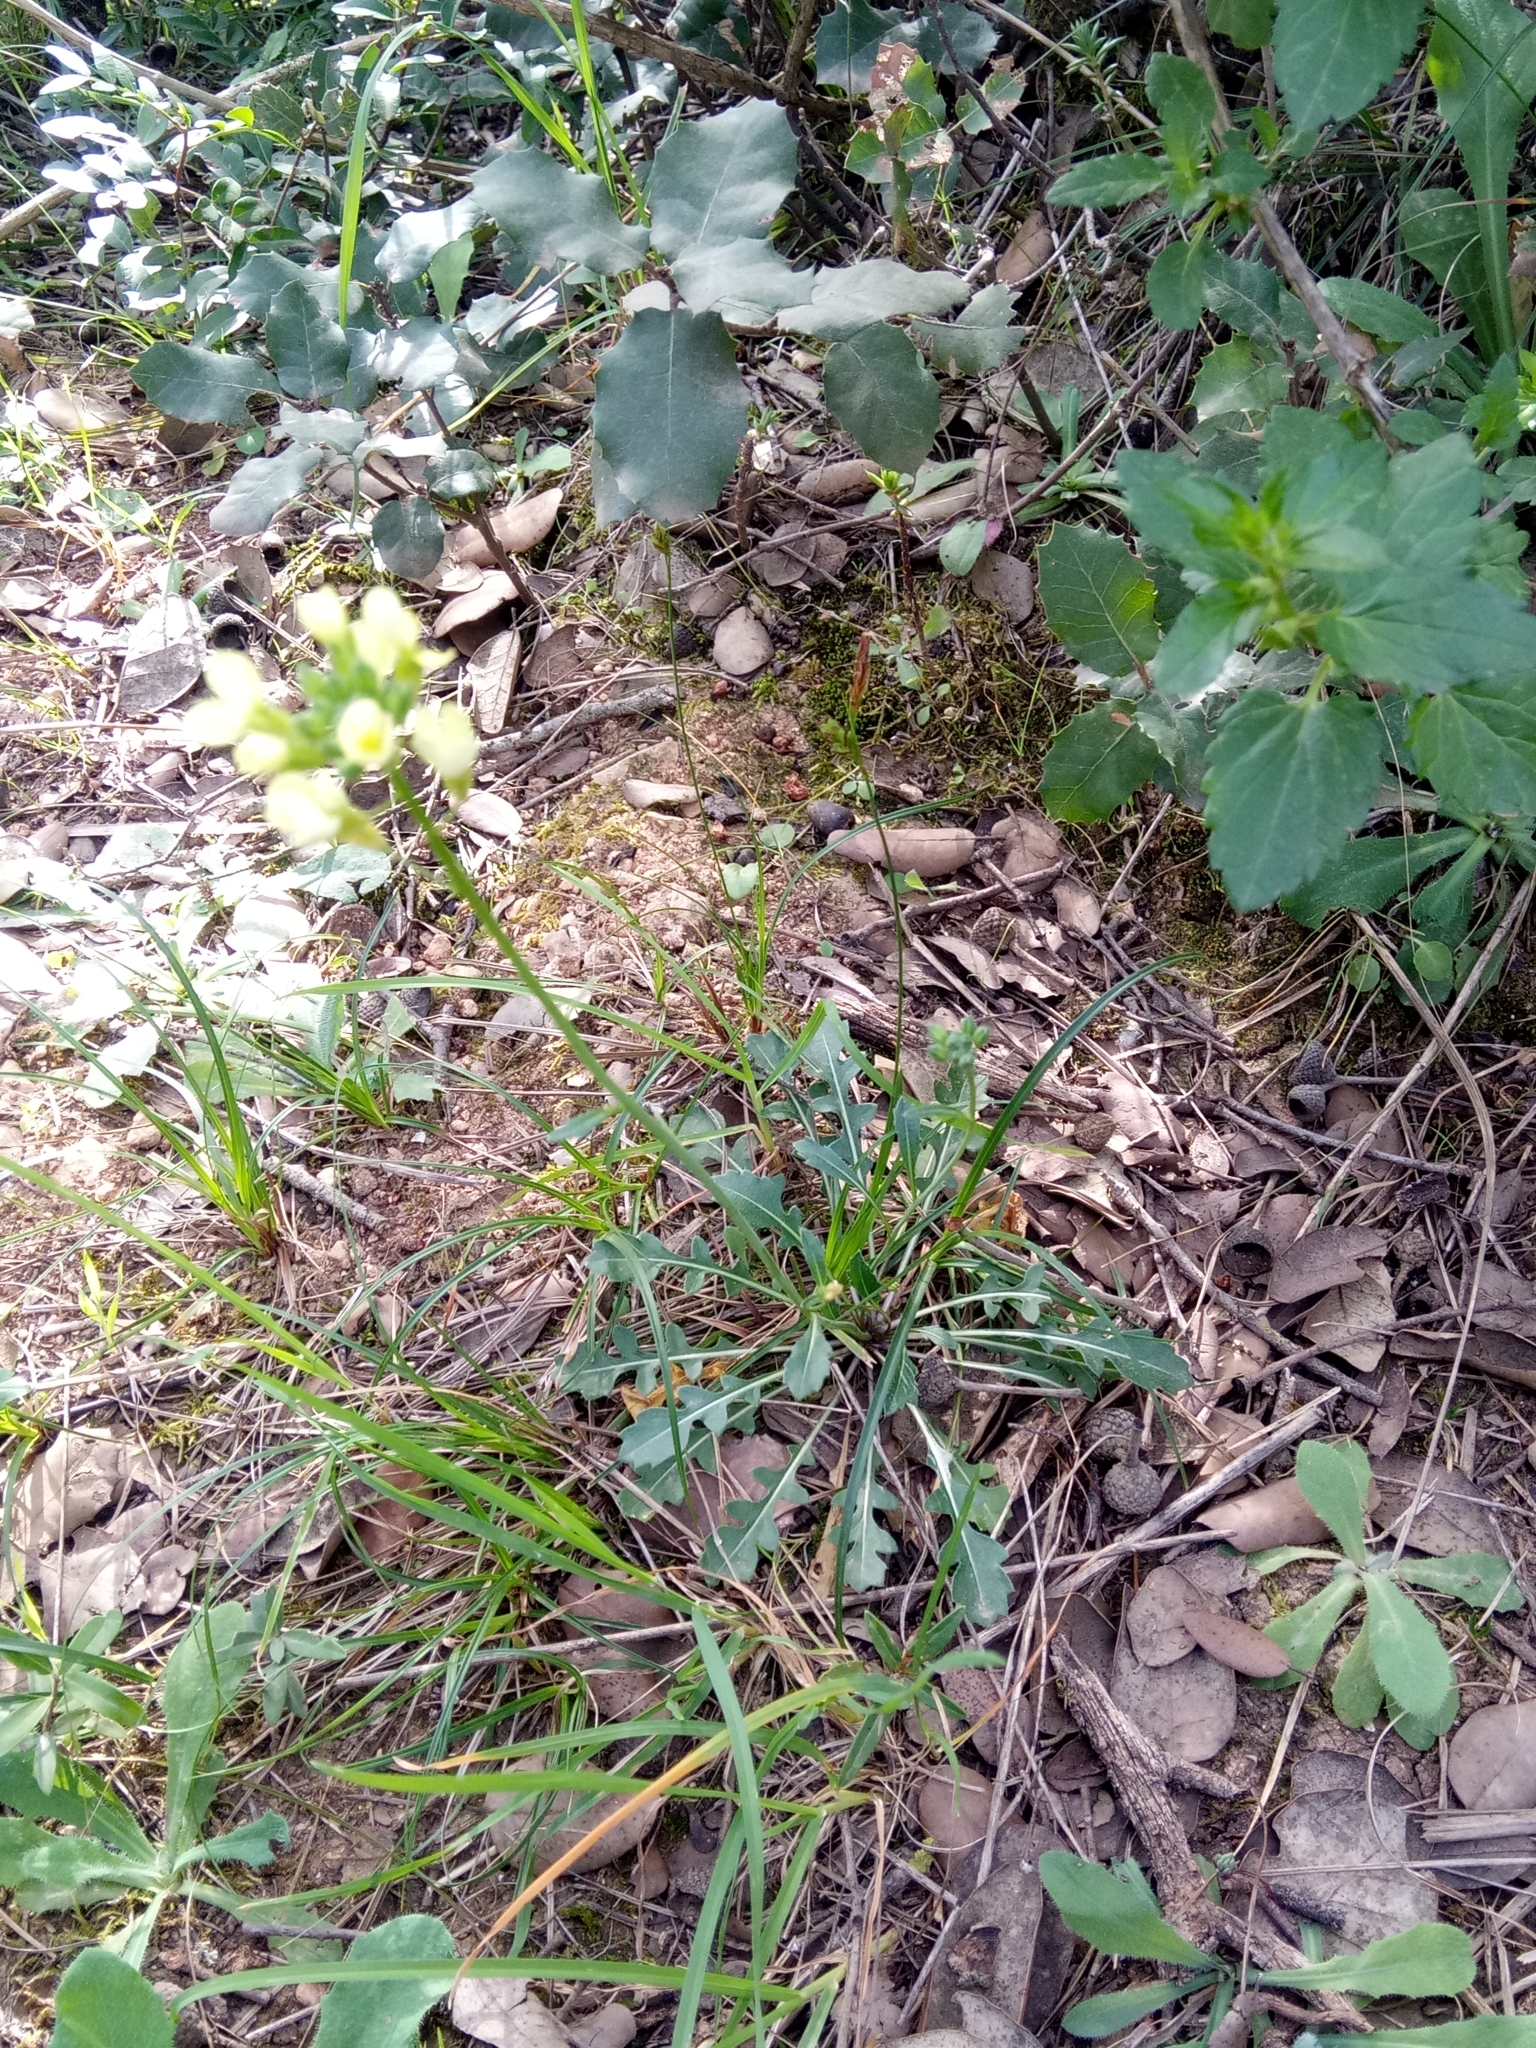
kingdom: Plantae
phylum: Tracheophyta
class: Magnoliopsida
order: Brassicales
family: Brassicaceae
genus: Biscutella
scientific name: Biscutella auriculata
